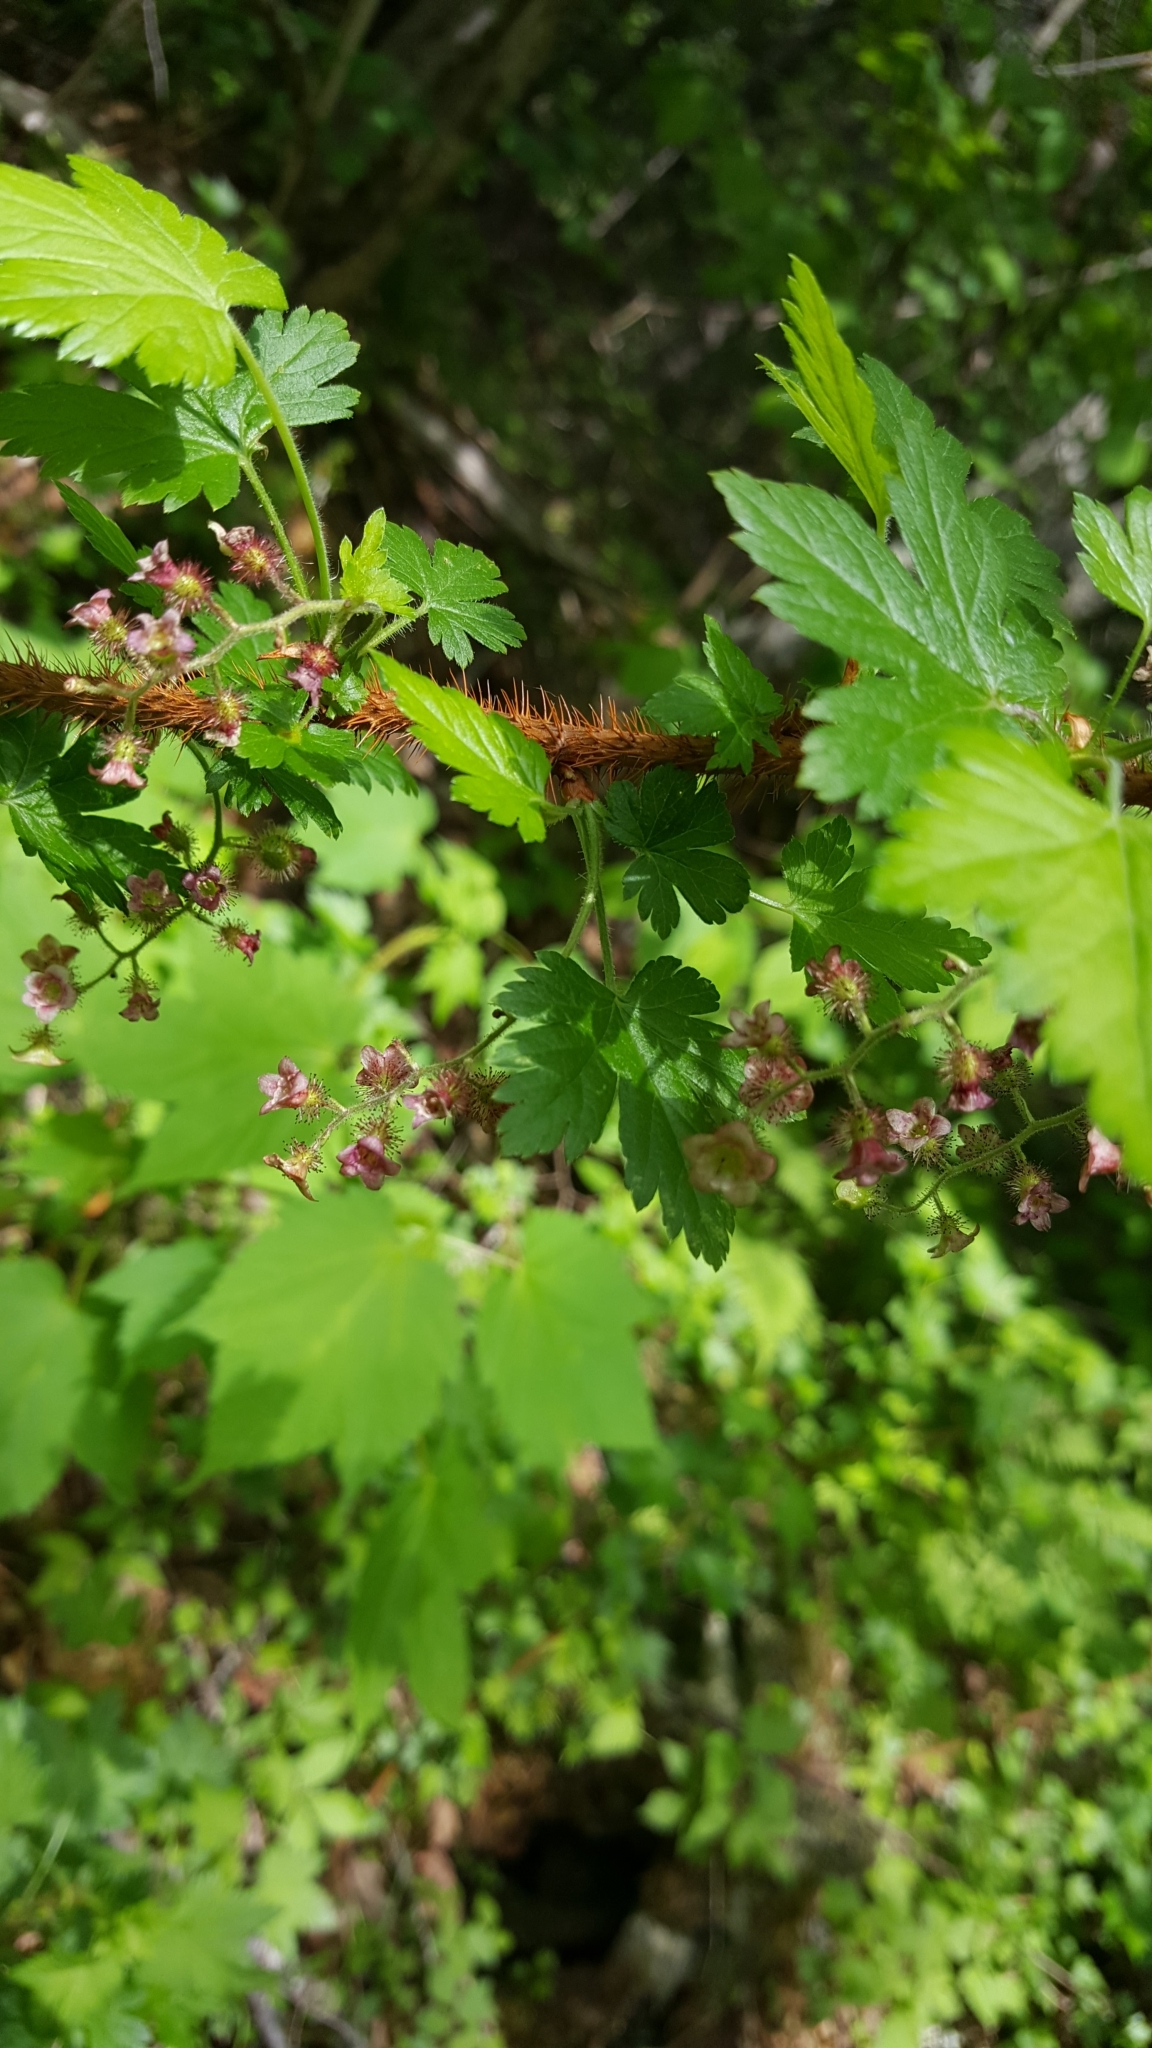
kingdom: Plantae
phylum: Tracheophyta
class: Magnoliopsida
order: Saxifragales
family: Grossulariaceae
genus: Ribes
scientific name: Ribes lacustre
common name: Black gooseberry
